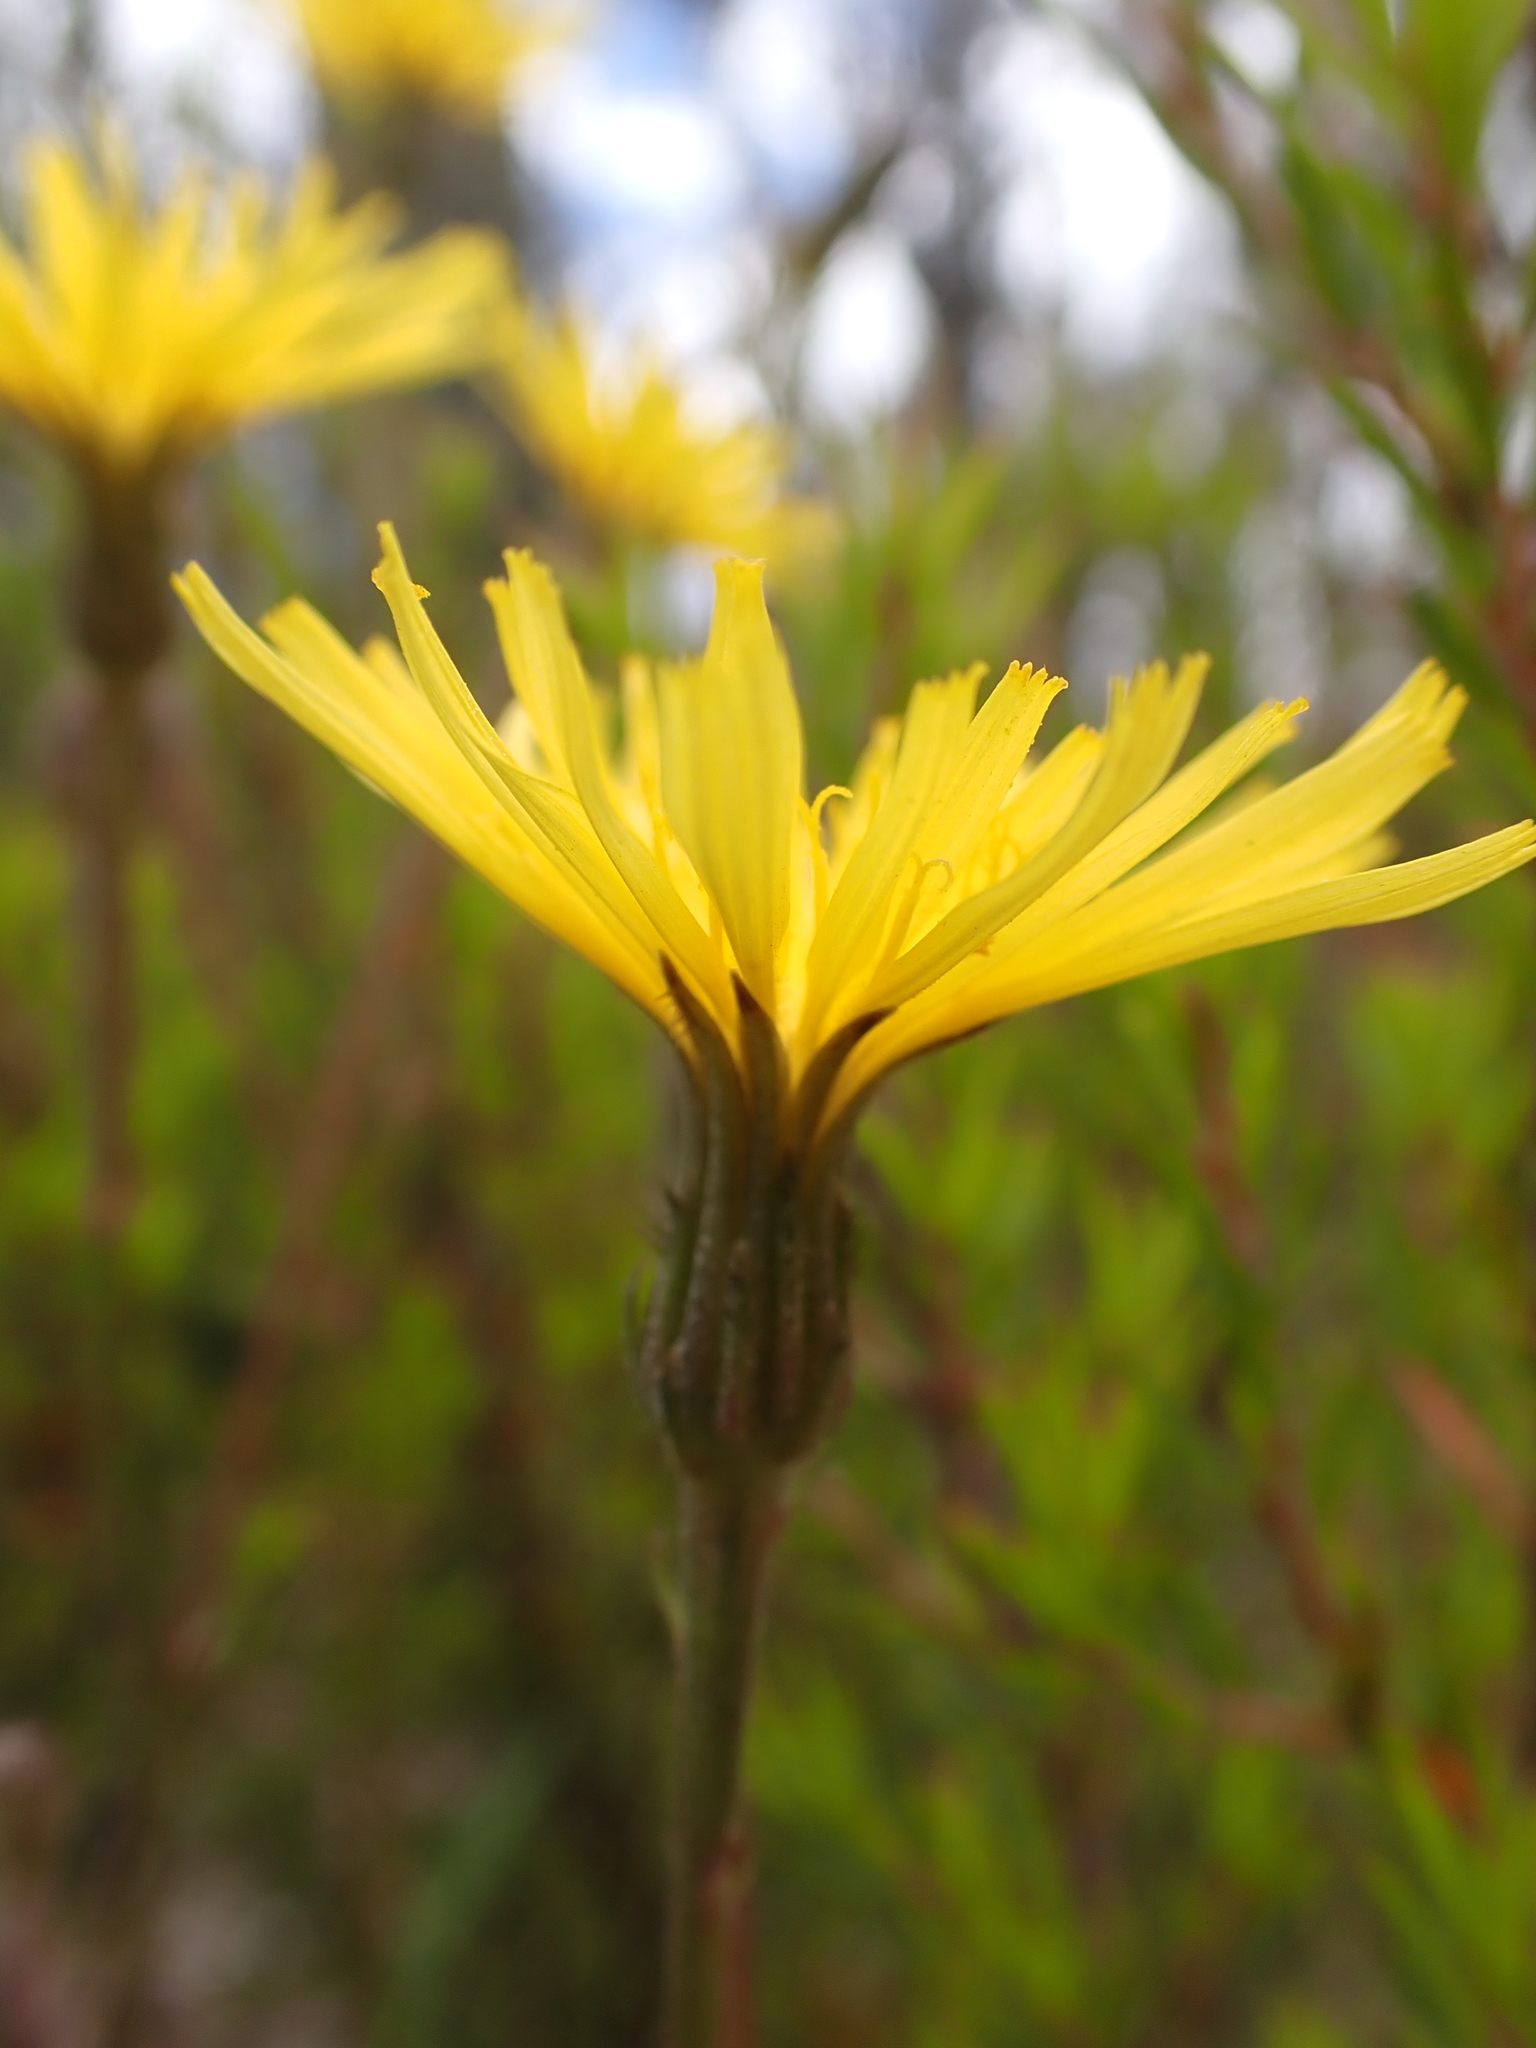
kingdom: Plantae
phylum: Tracheophyta
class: Magnoliopsida
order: Asterales
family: Asteraceae
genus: Picris
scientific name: Picris angustifolia
